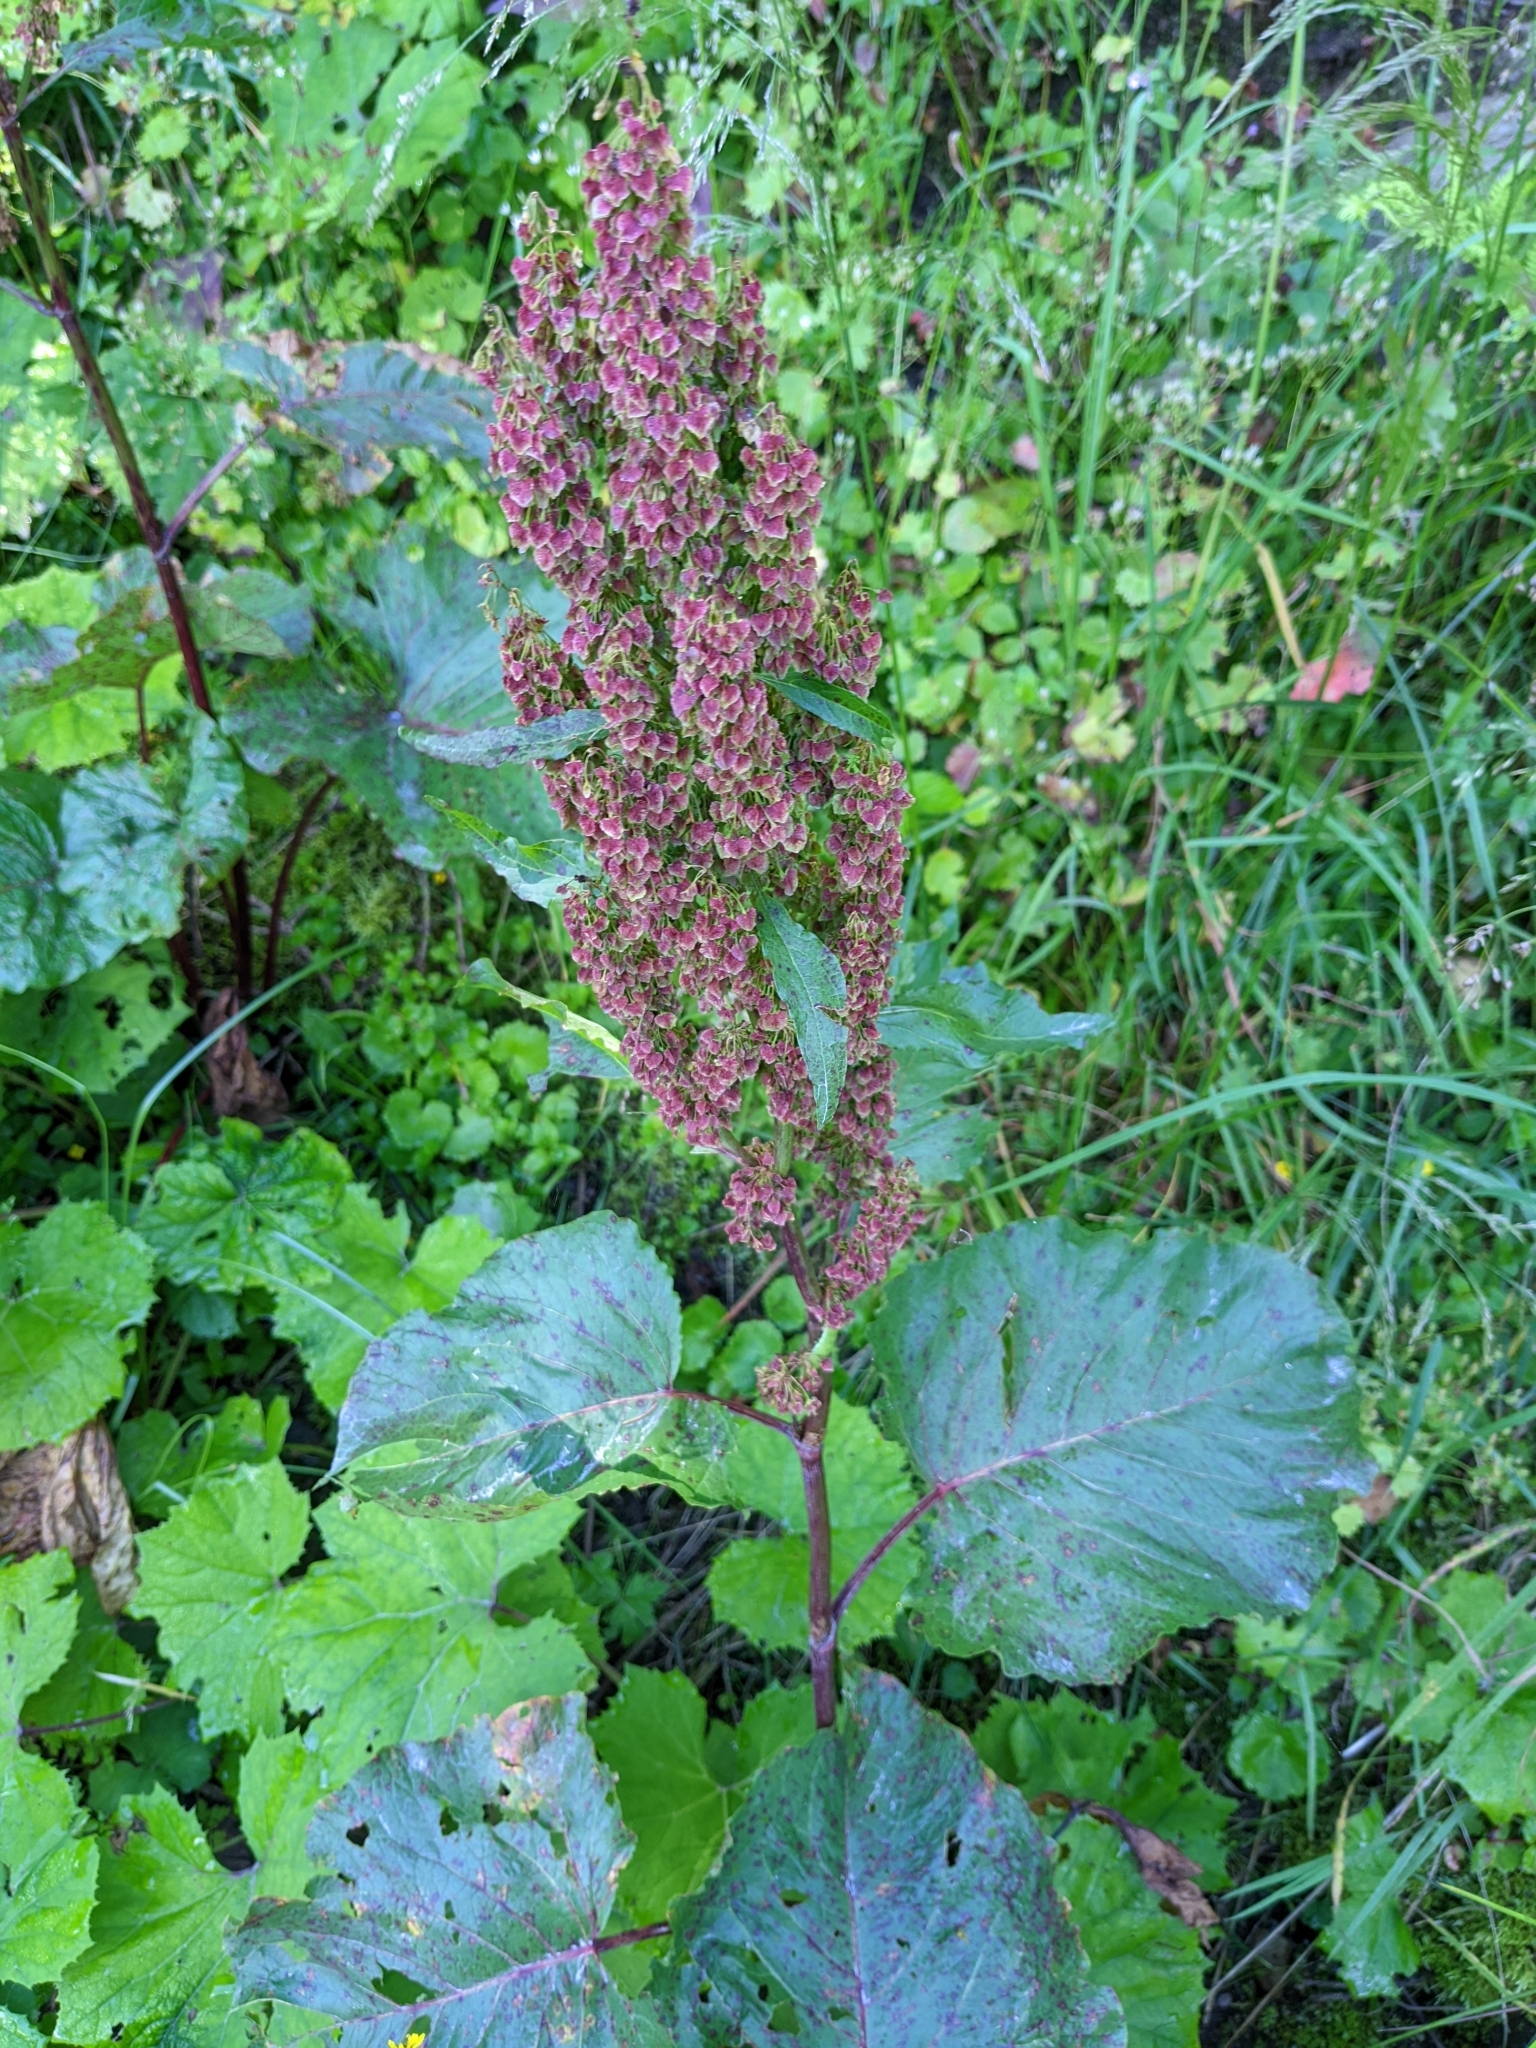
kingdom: Plantae
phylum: Tracheophyta
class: Magnoliopsida
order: Caryophyllales
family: Polygonaceae
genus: Rumex
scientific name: Rumex alpinus
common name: Alpine dock
